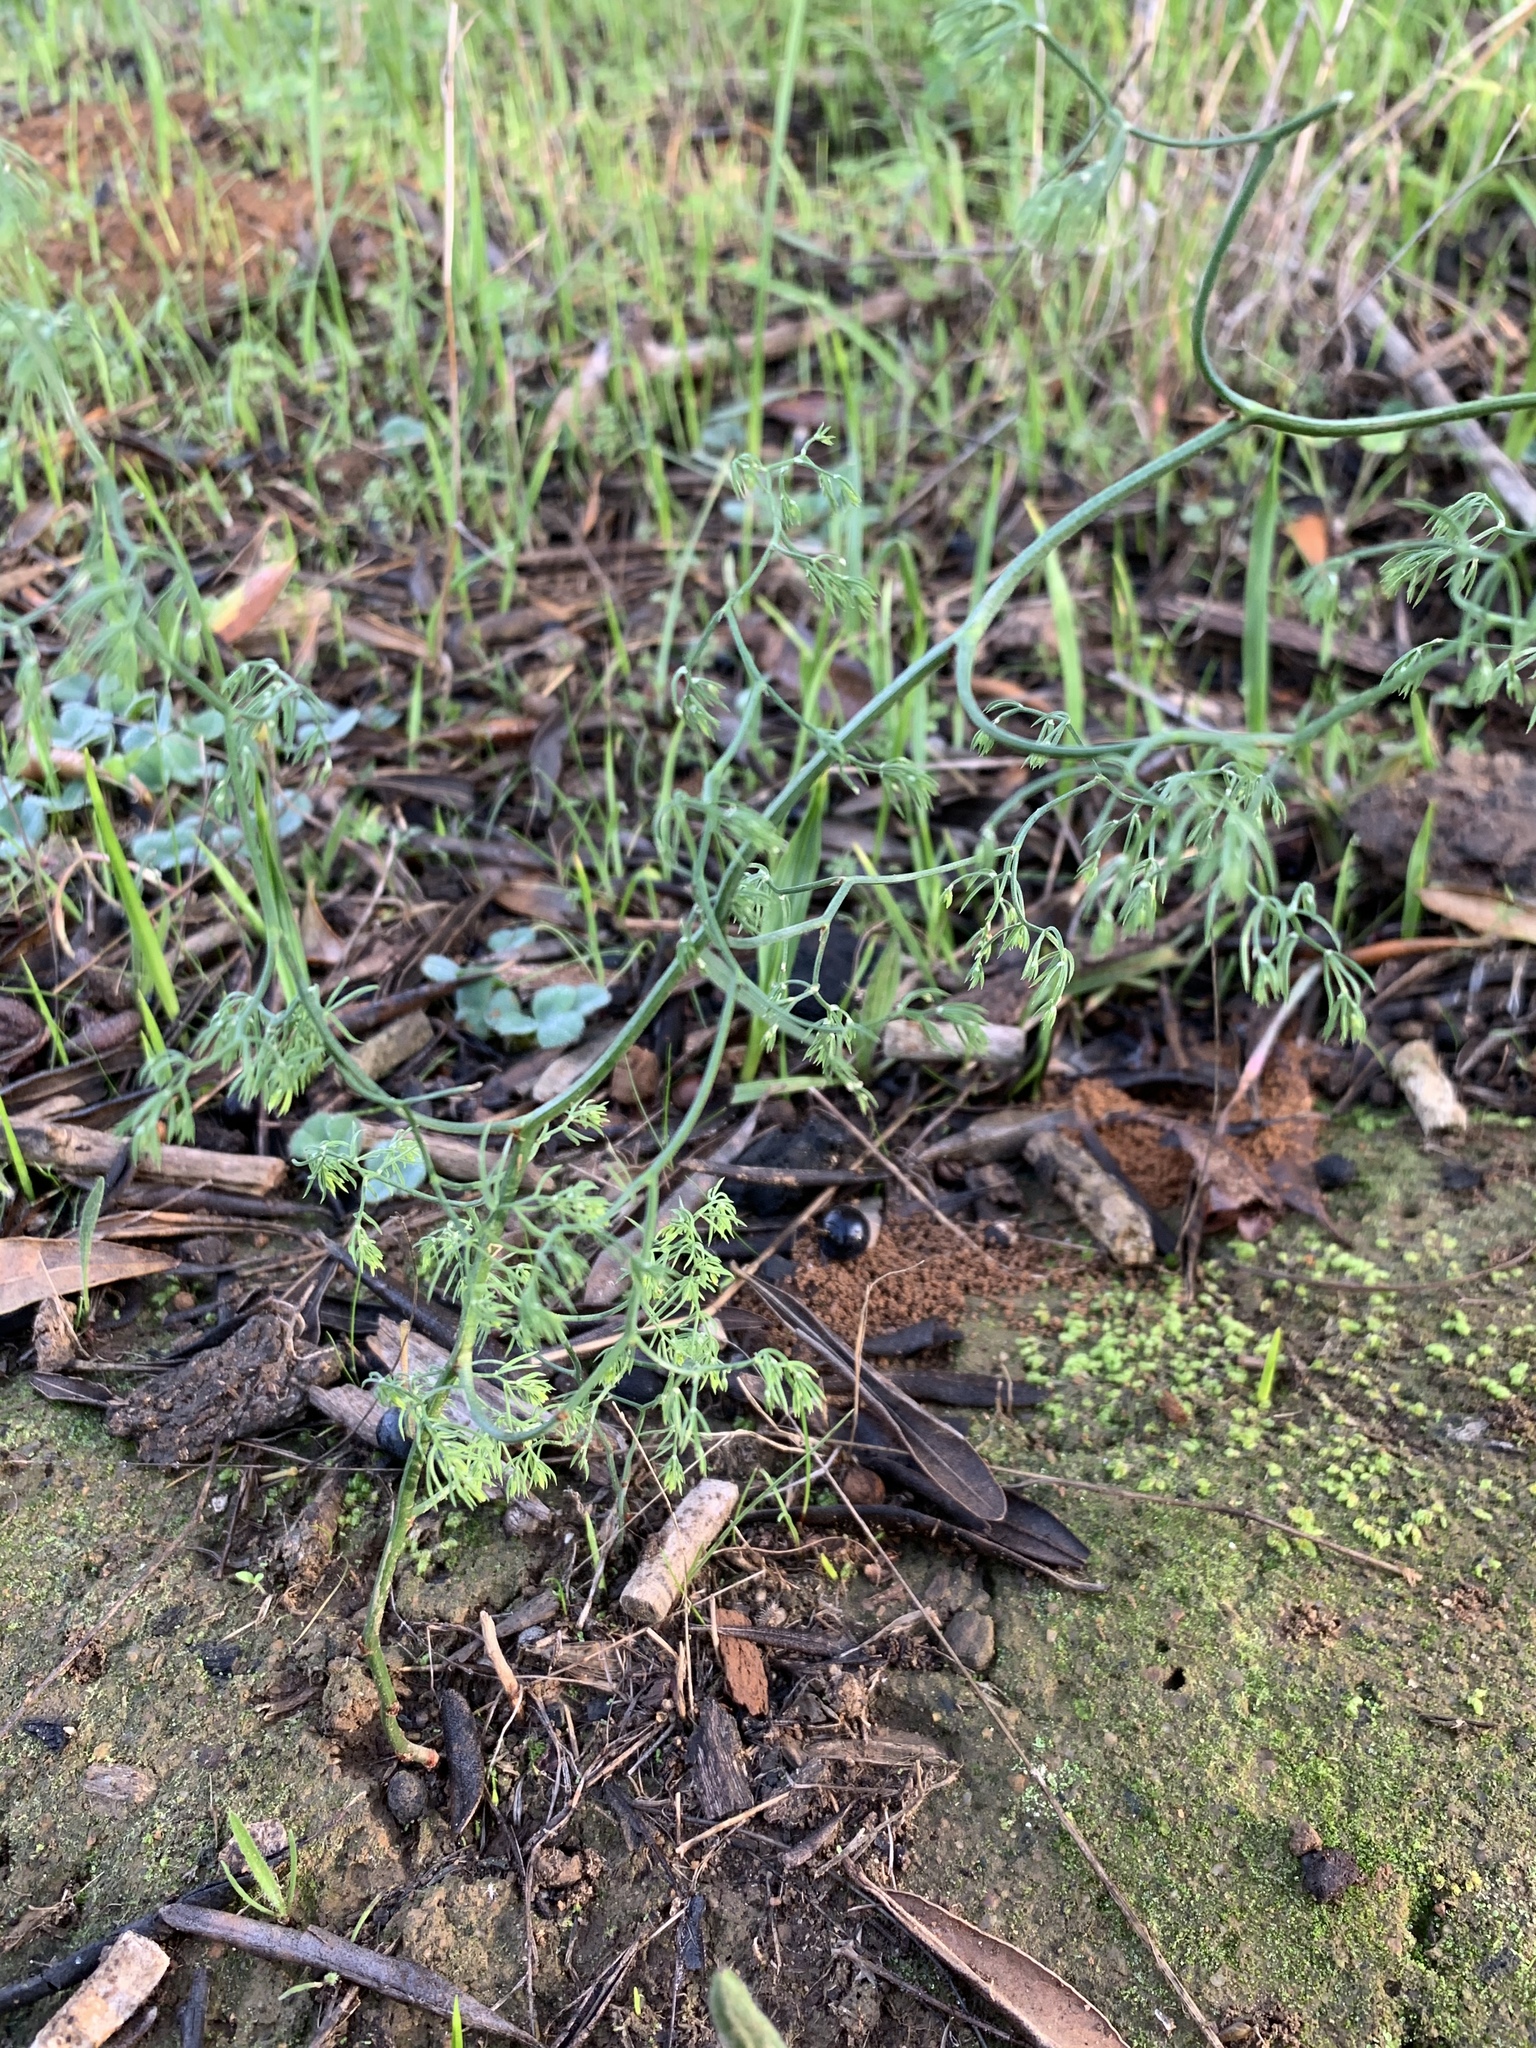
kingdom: Plantae
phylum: Tracheophyta
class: Liliopsida
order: Asparagales
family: Asparagaceae
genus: Asparagus
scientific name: Asparagus declinatus
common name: Bridal-creeper
